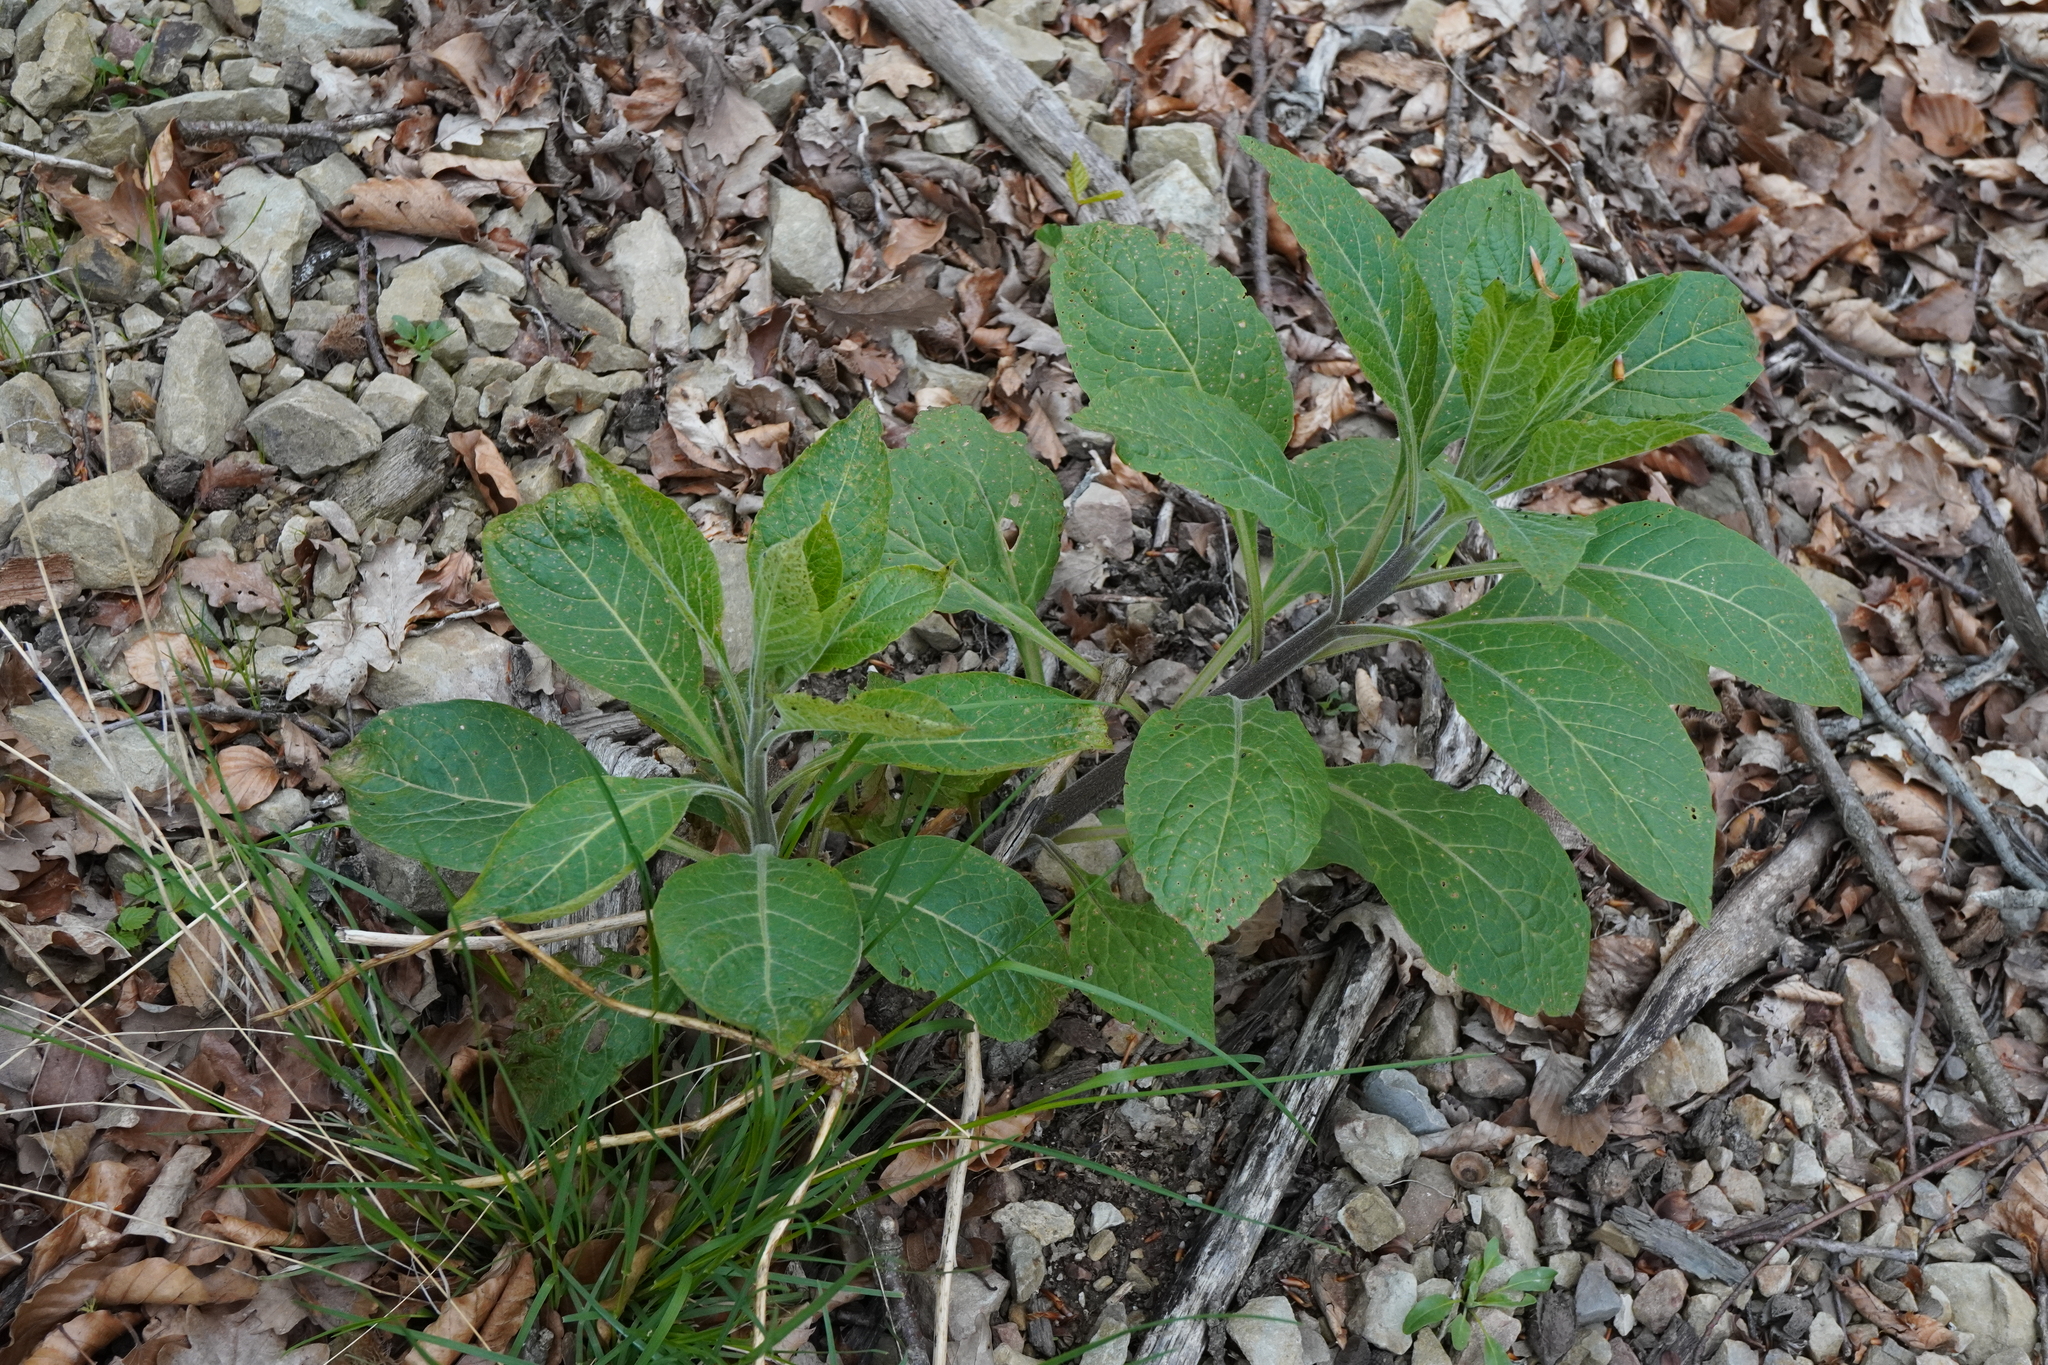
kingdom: Plantae
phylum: Tracheophyta
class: Magnoliopsida
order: Solanales
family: Solanaceae
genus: Atropa
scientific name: Atropa belladonna
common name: Deadly nightshade
